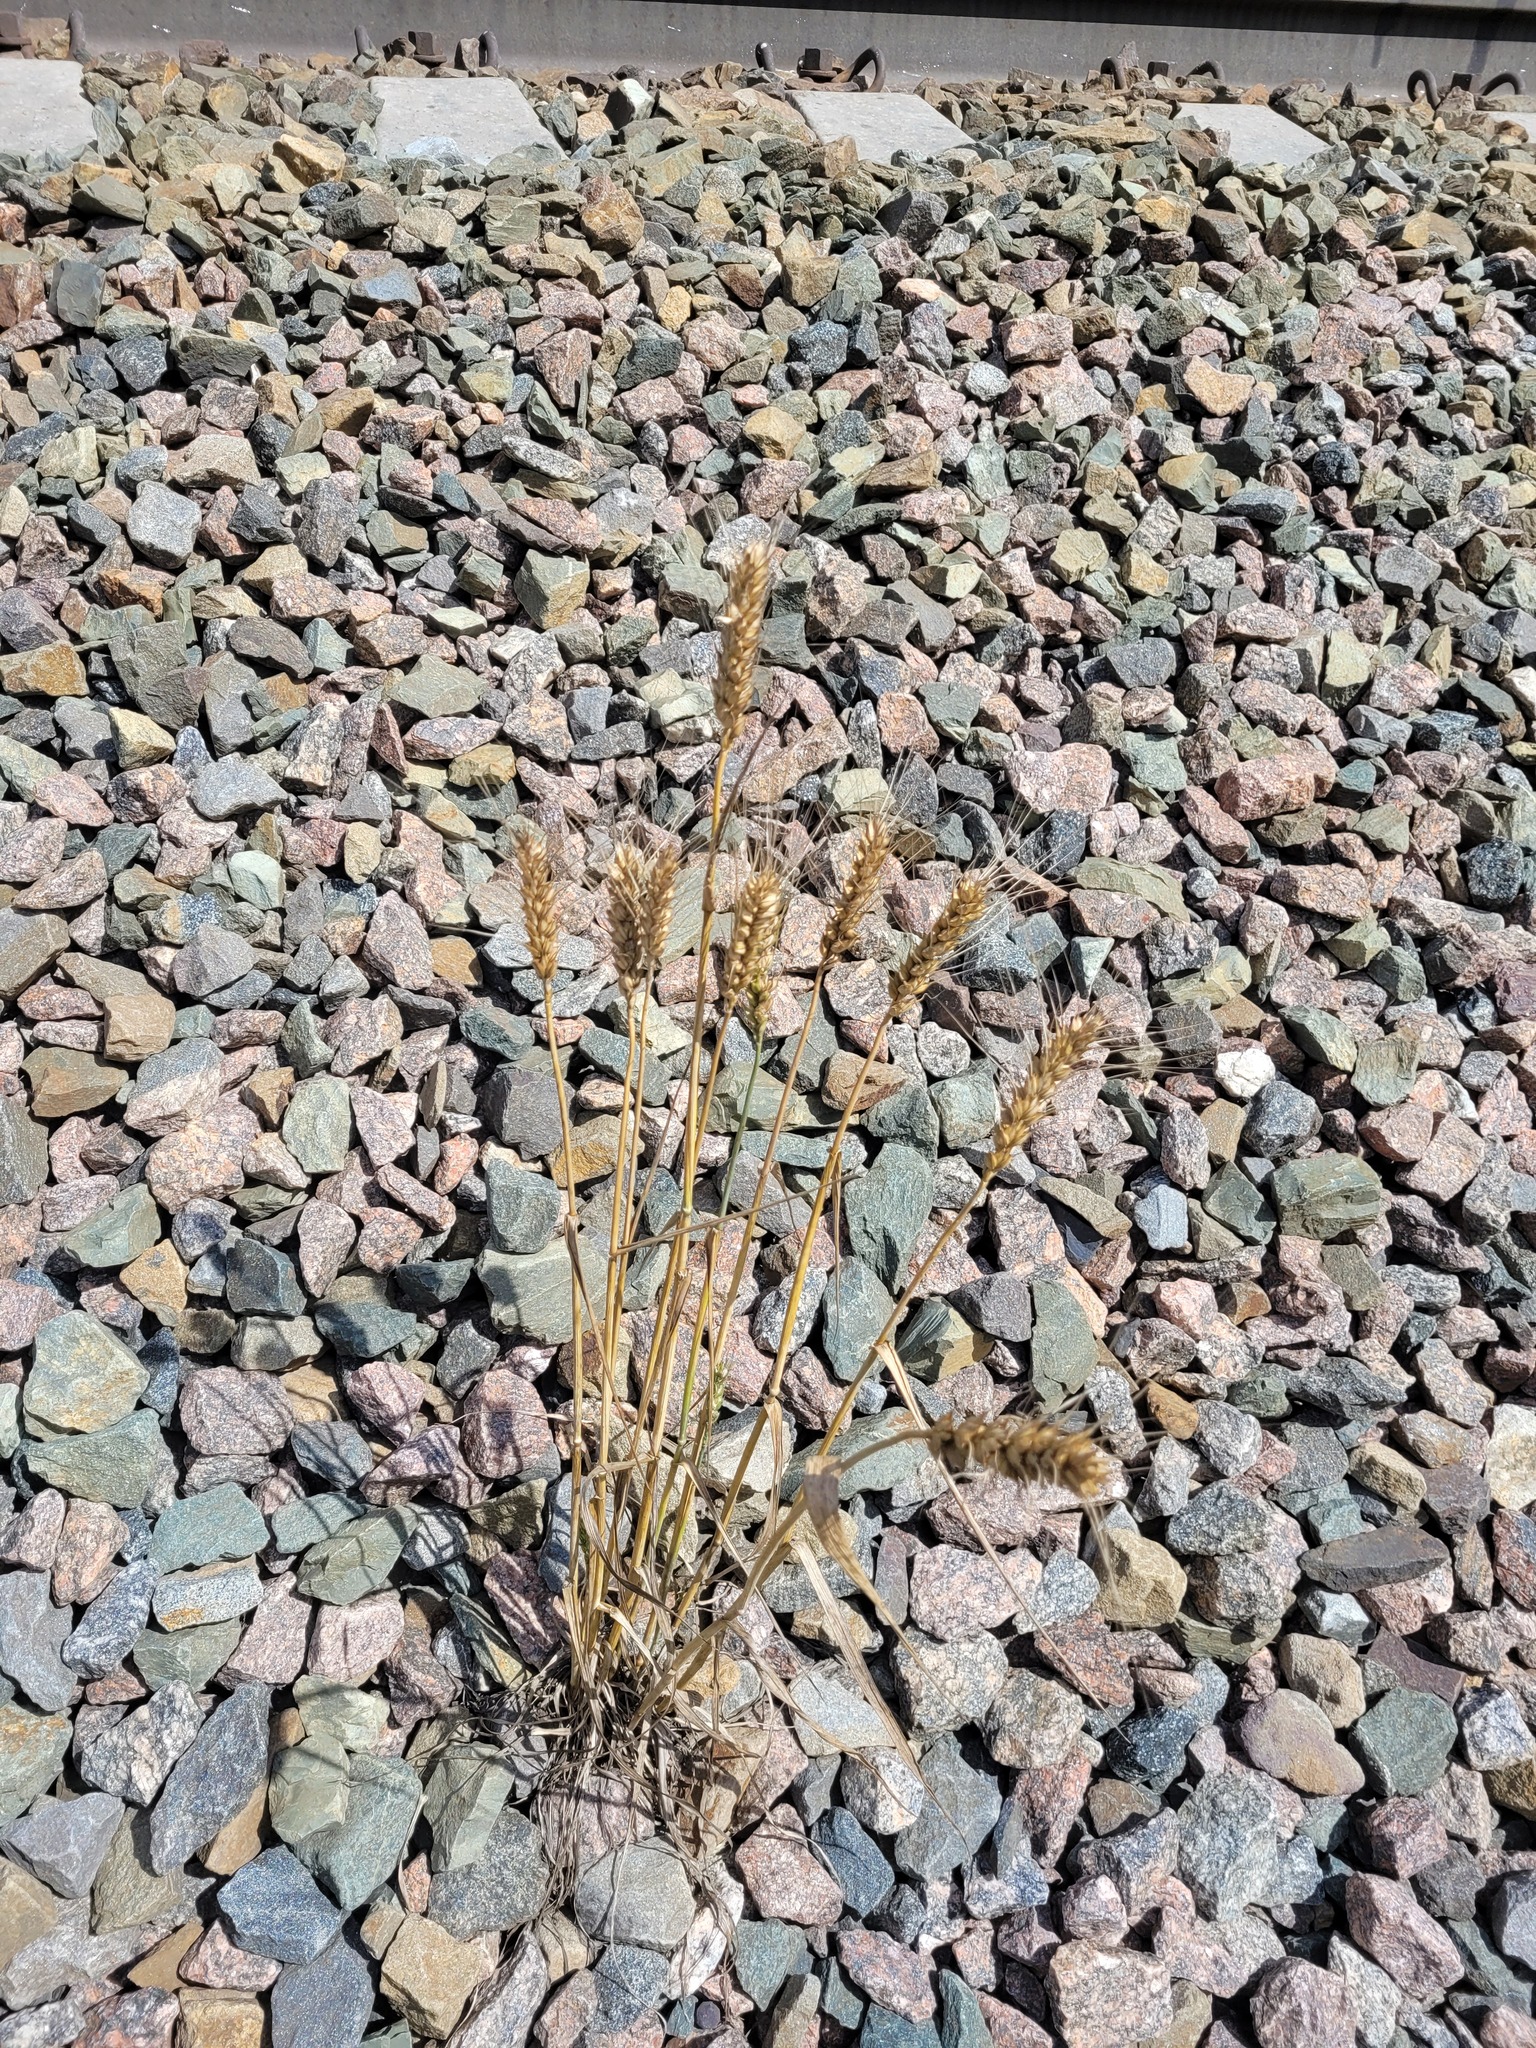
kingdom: Plantae
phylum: Tracheophyta
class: Liliopsida
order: Poales
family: Poaceae
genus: Triticum
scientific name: Triticum aestivum
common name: Common wheat
